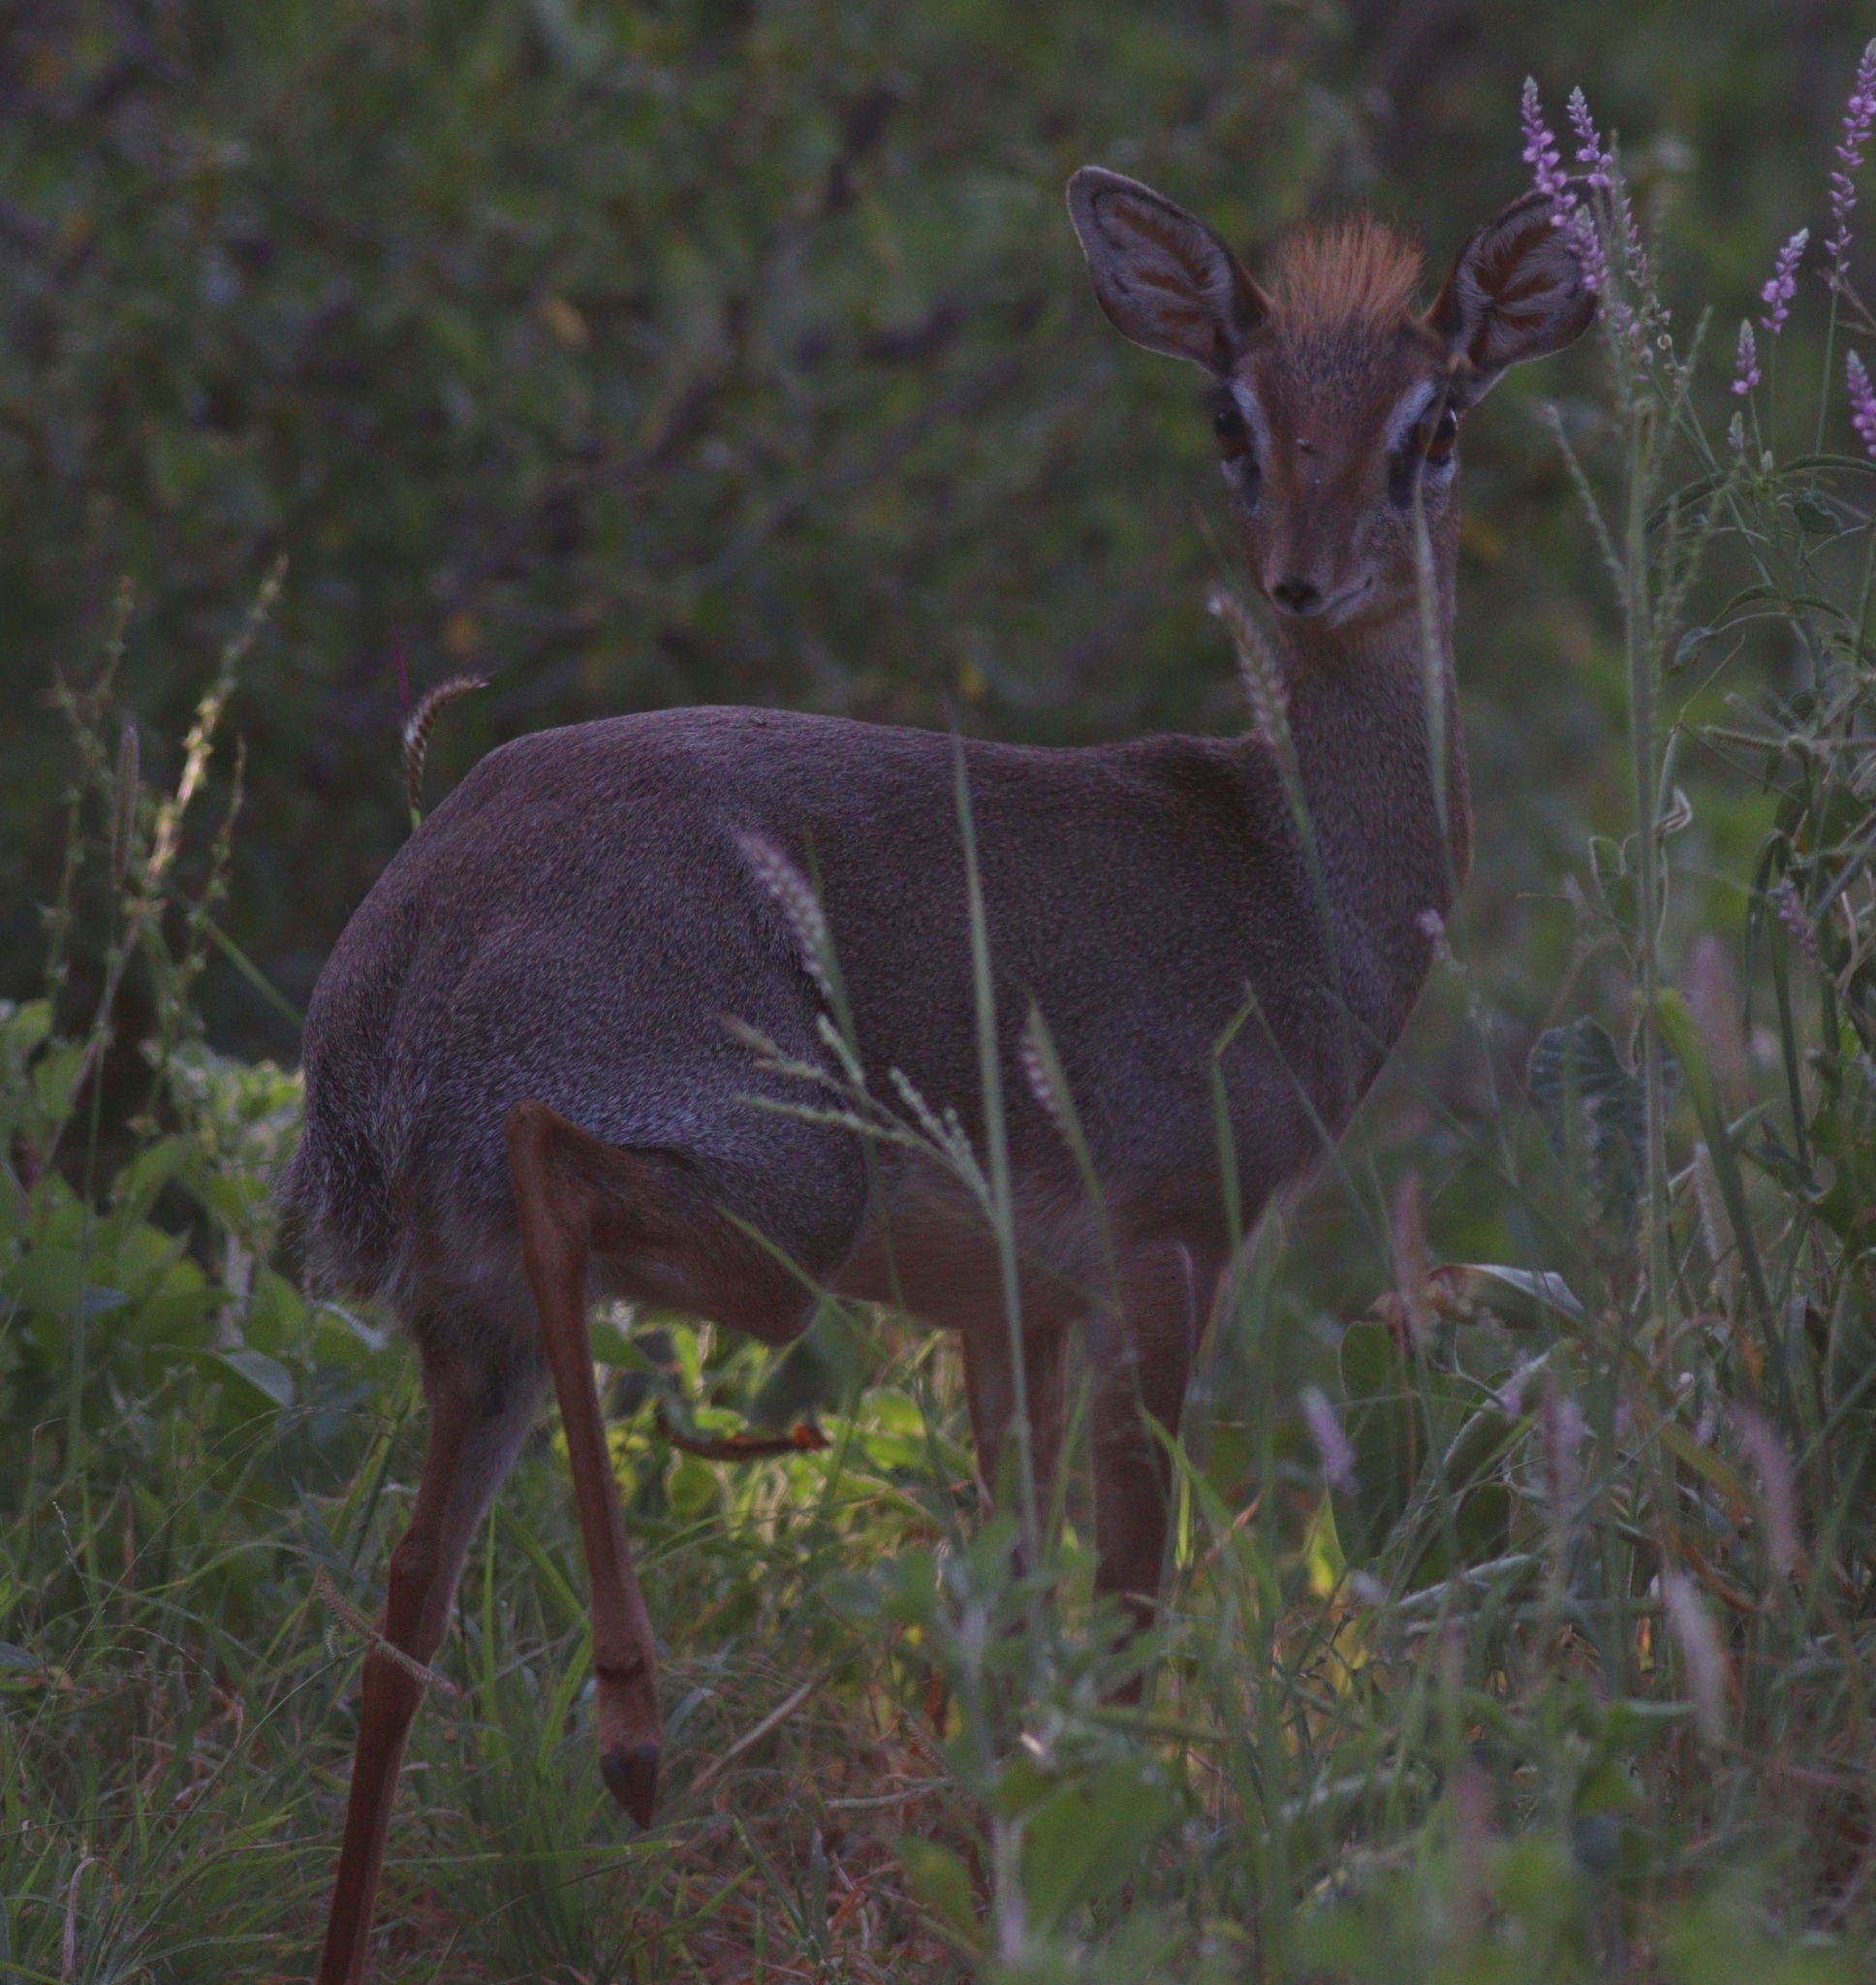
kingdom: Animalia
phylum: Chordata
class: Mammalia
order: Artiodactyla
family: Bovidae
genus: Madoqua
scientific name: Madoqua
